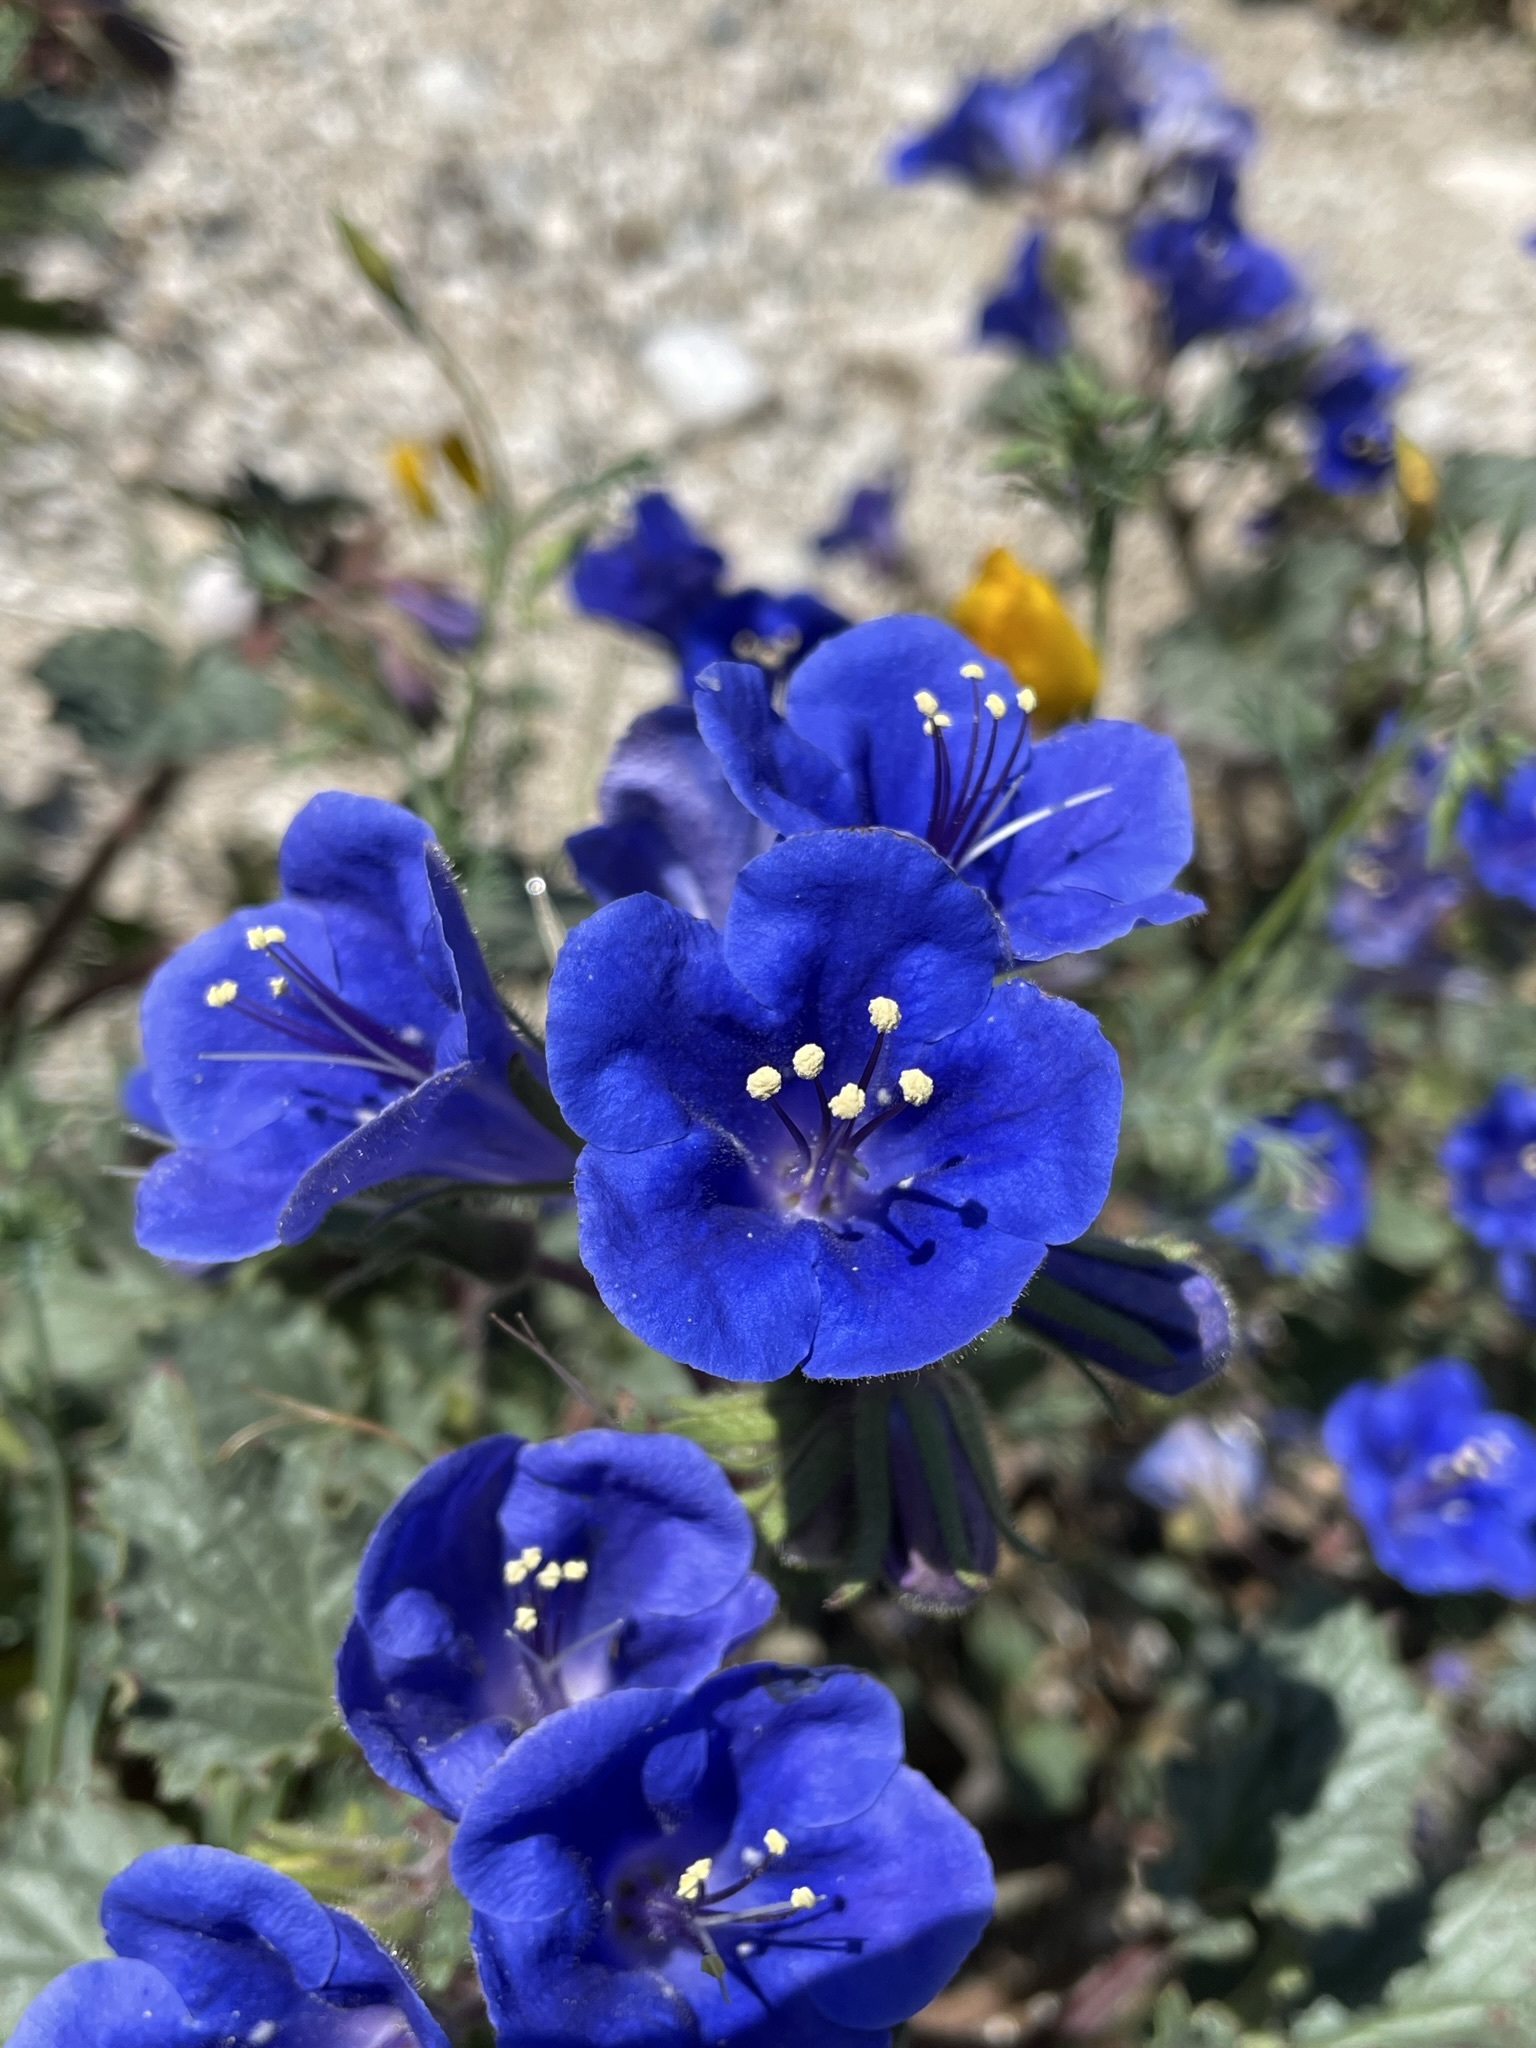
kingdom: Plantae
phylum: Tracheophyta
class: Magnoliopsida
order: Boraginales
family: Hydrophyllaceae
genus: Phacelia
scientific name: Phacelia campanularia
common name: California bluebell
